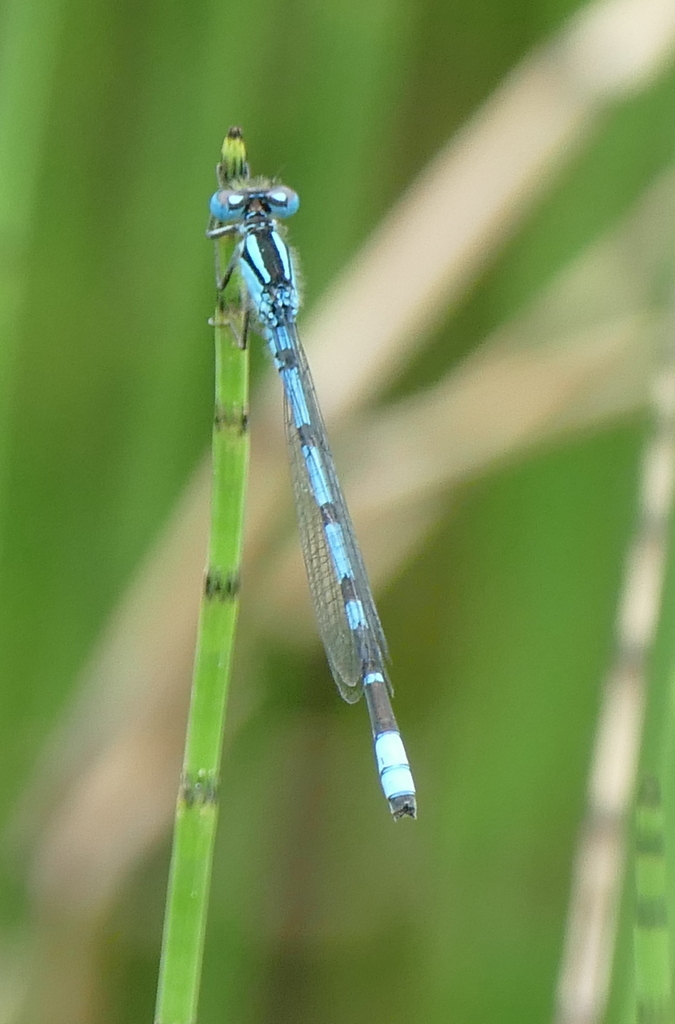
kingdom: Animalia
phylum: Arthropoda
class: Insecta
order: Odonata
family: Coenagrionidae
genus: Enallagma
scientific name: Enallagma cyathigerum
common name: Common blue damselfly
